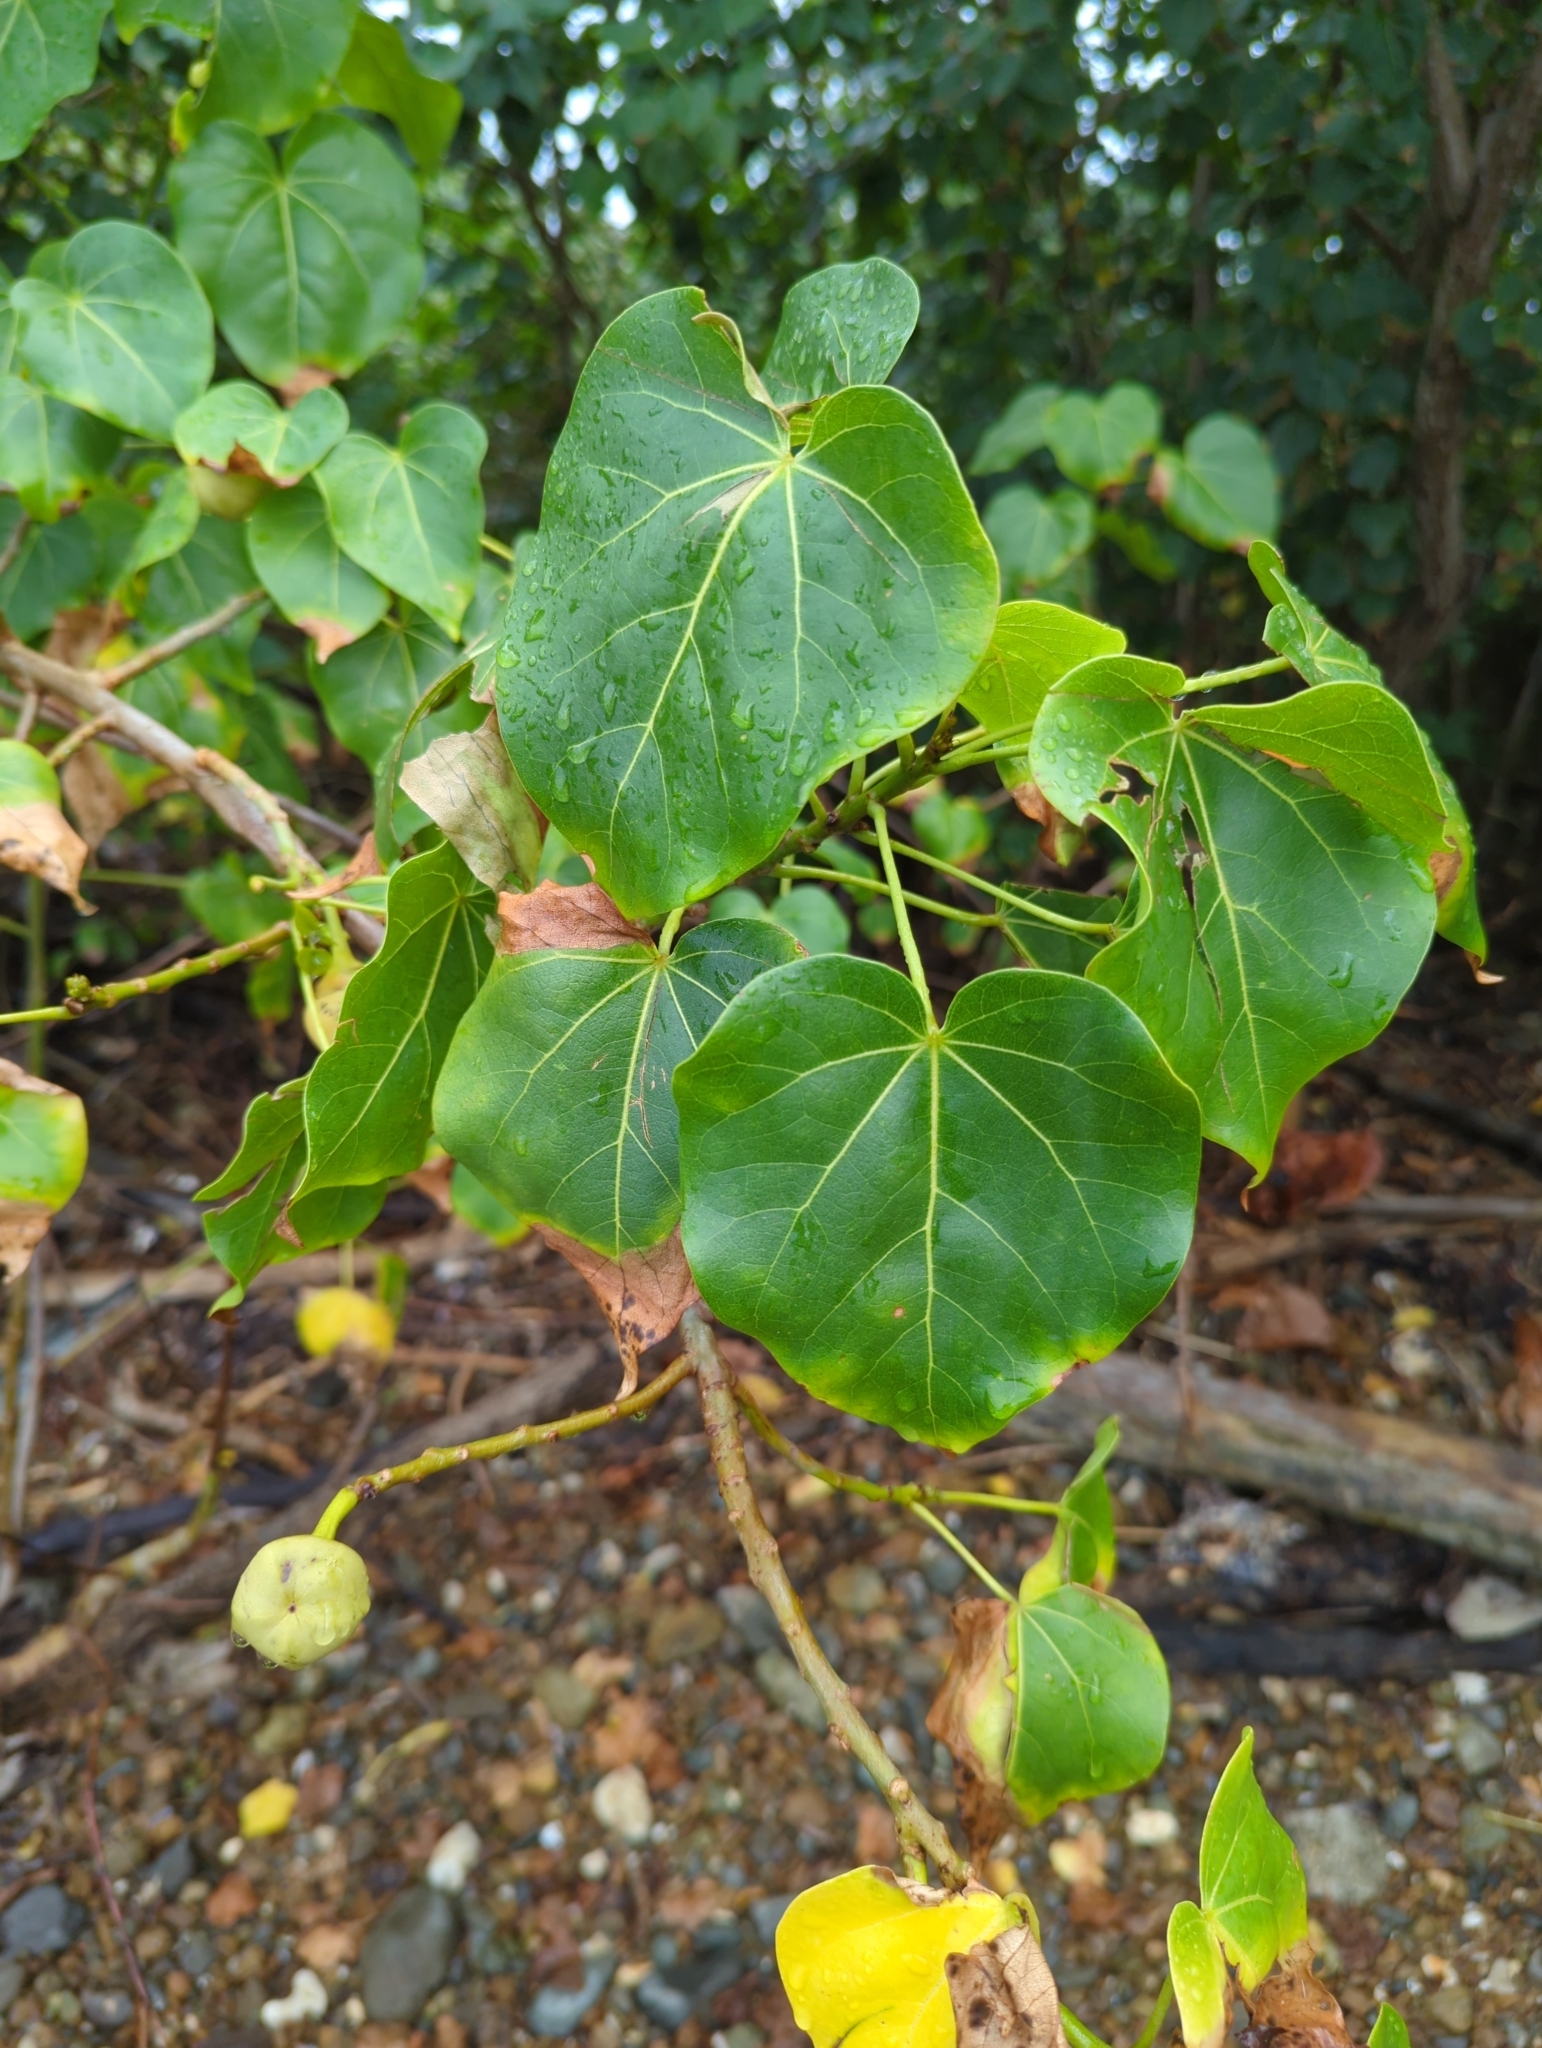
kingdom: Plantae
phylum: Tracheophyta
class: Magnoliopsida
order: Malvales
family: Malvaceae
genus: Thespesia
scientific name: Thespesia populnea
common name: Seaside mahoe
